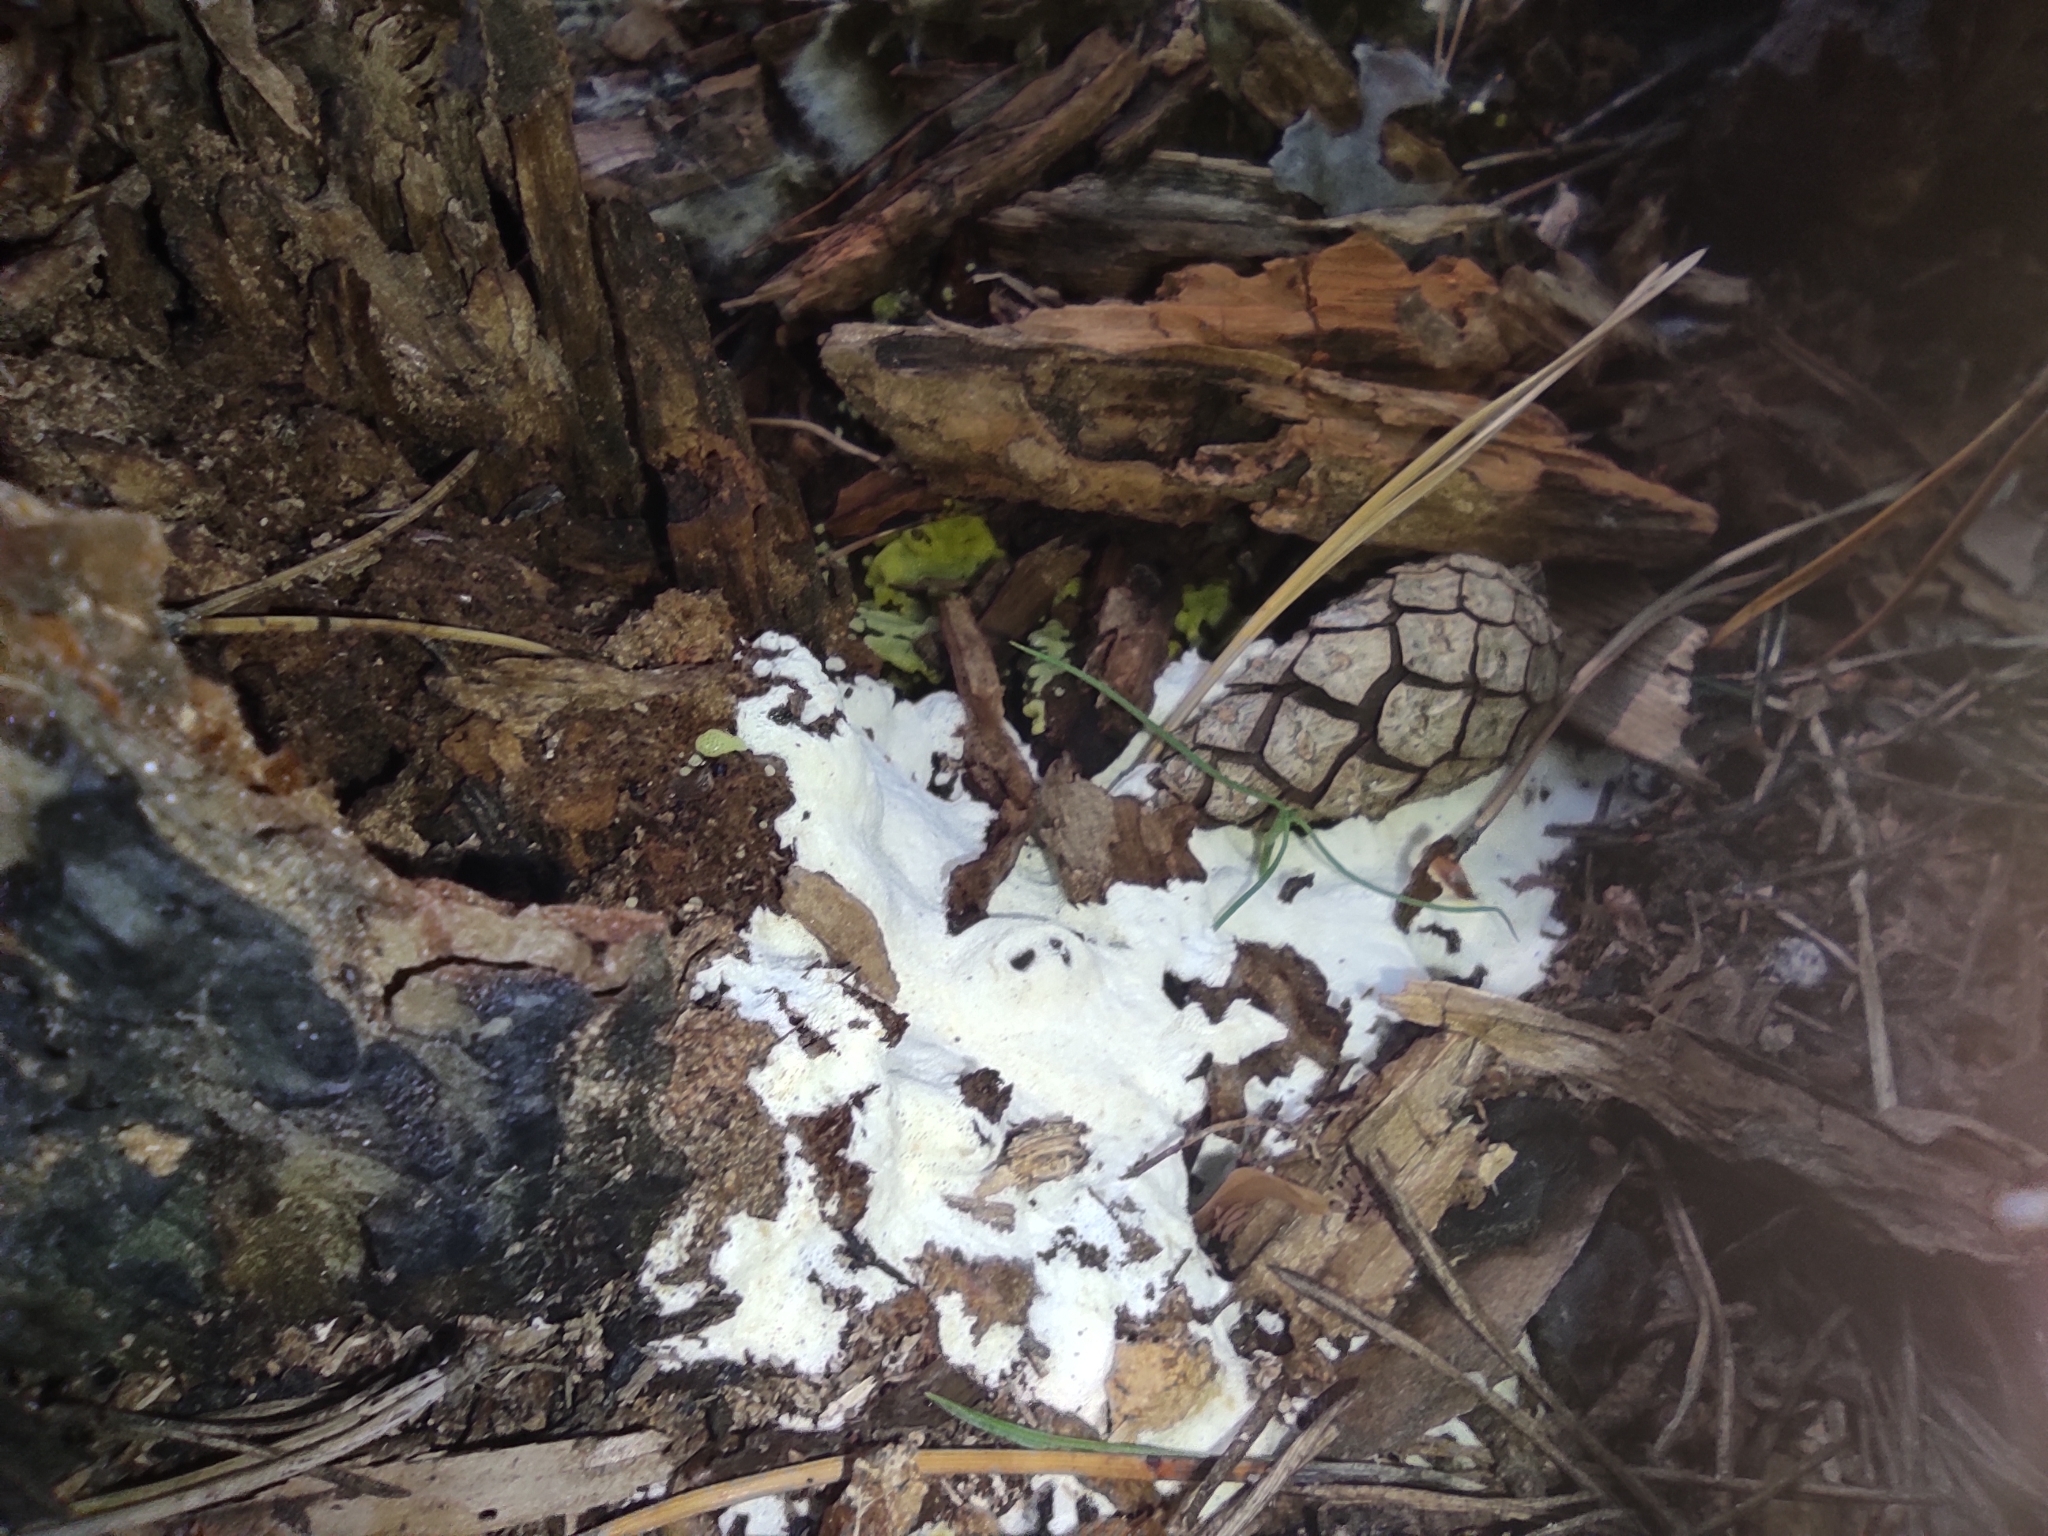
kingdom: Protozoa
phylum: Mycetozoa
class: Protosteliomycetes
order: Ceratiomyxales
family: Ceratiomyxaceae
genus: Ceratiomyxa
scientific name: Ceratiomyxa fruticulosa
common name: Honeycomb coral slime mold
